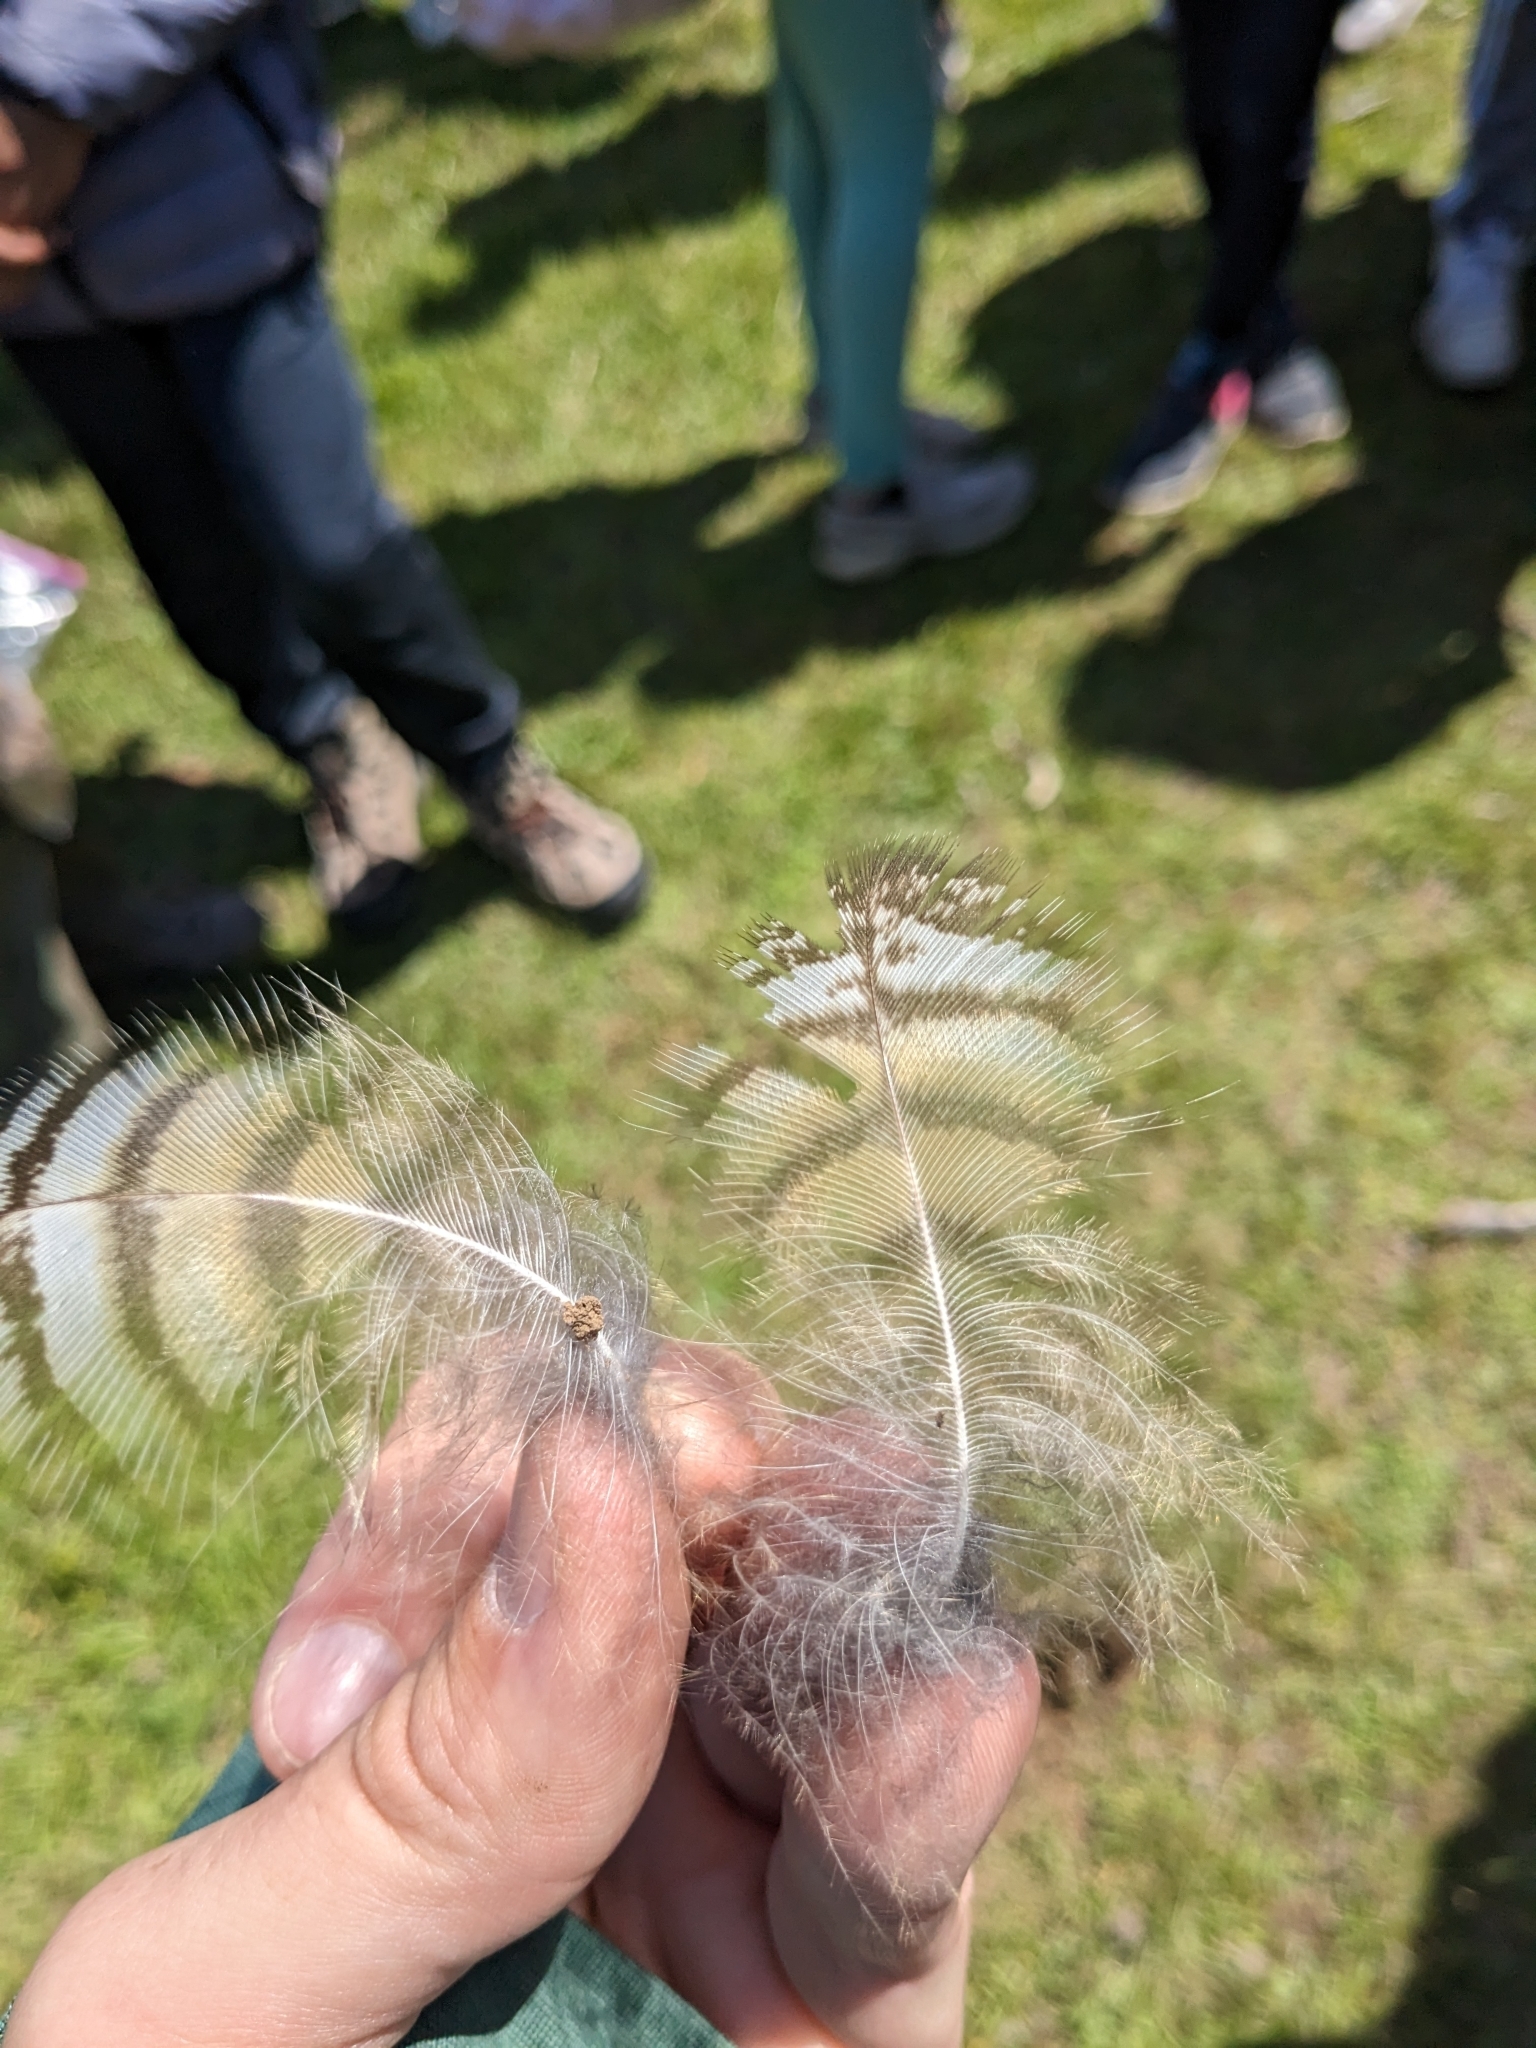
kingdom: Animalia
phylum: Chordata
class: Aves
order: Strigiformes
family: Strigidae
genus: Bubo
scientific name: Bubo virginianus
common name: Great horned owl
